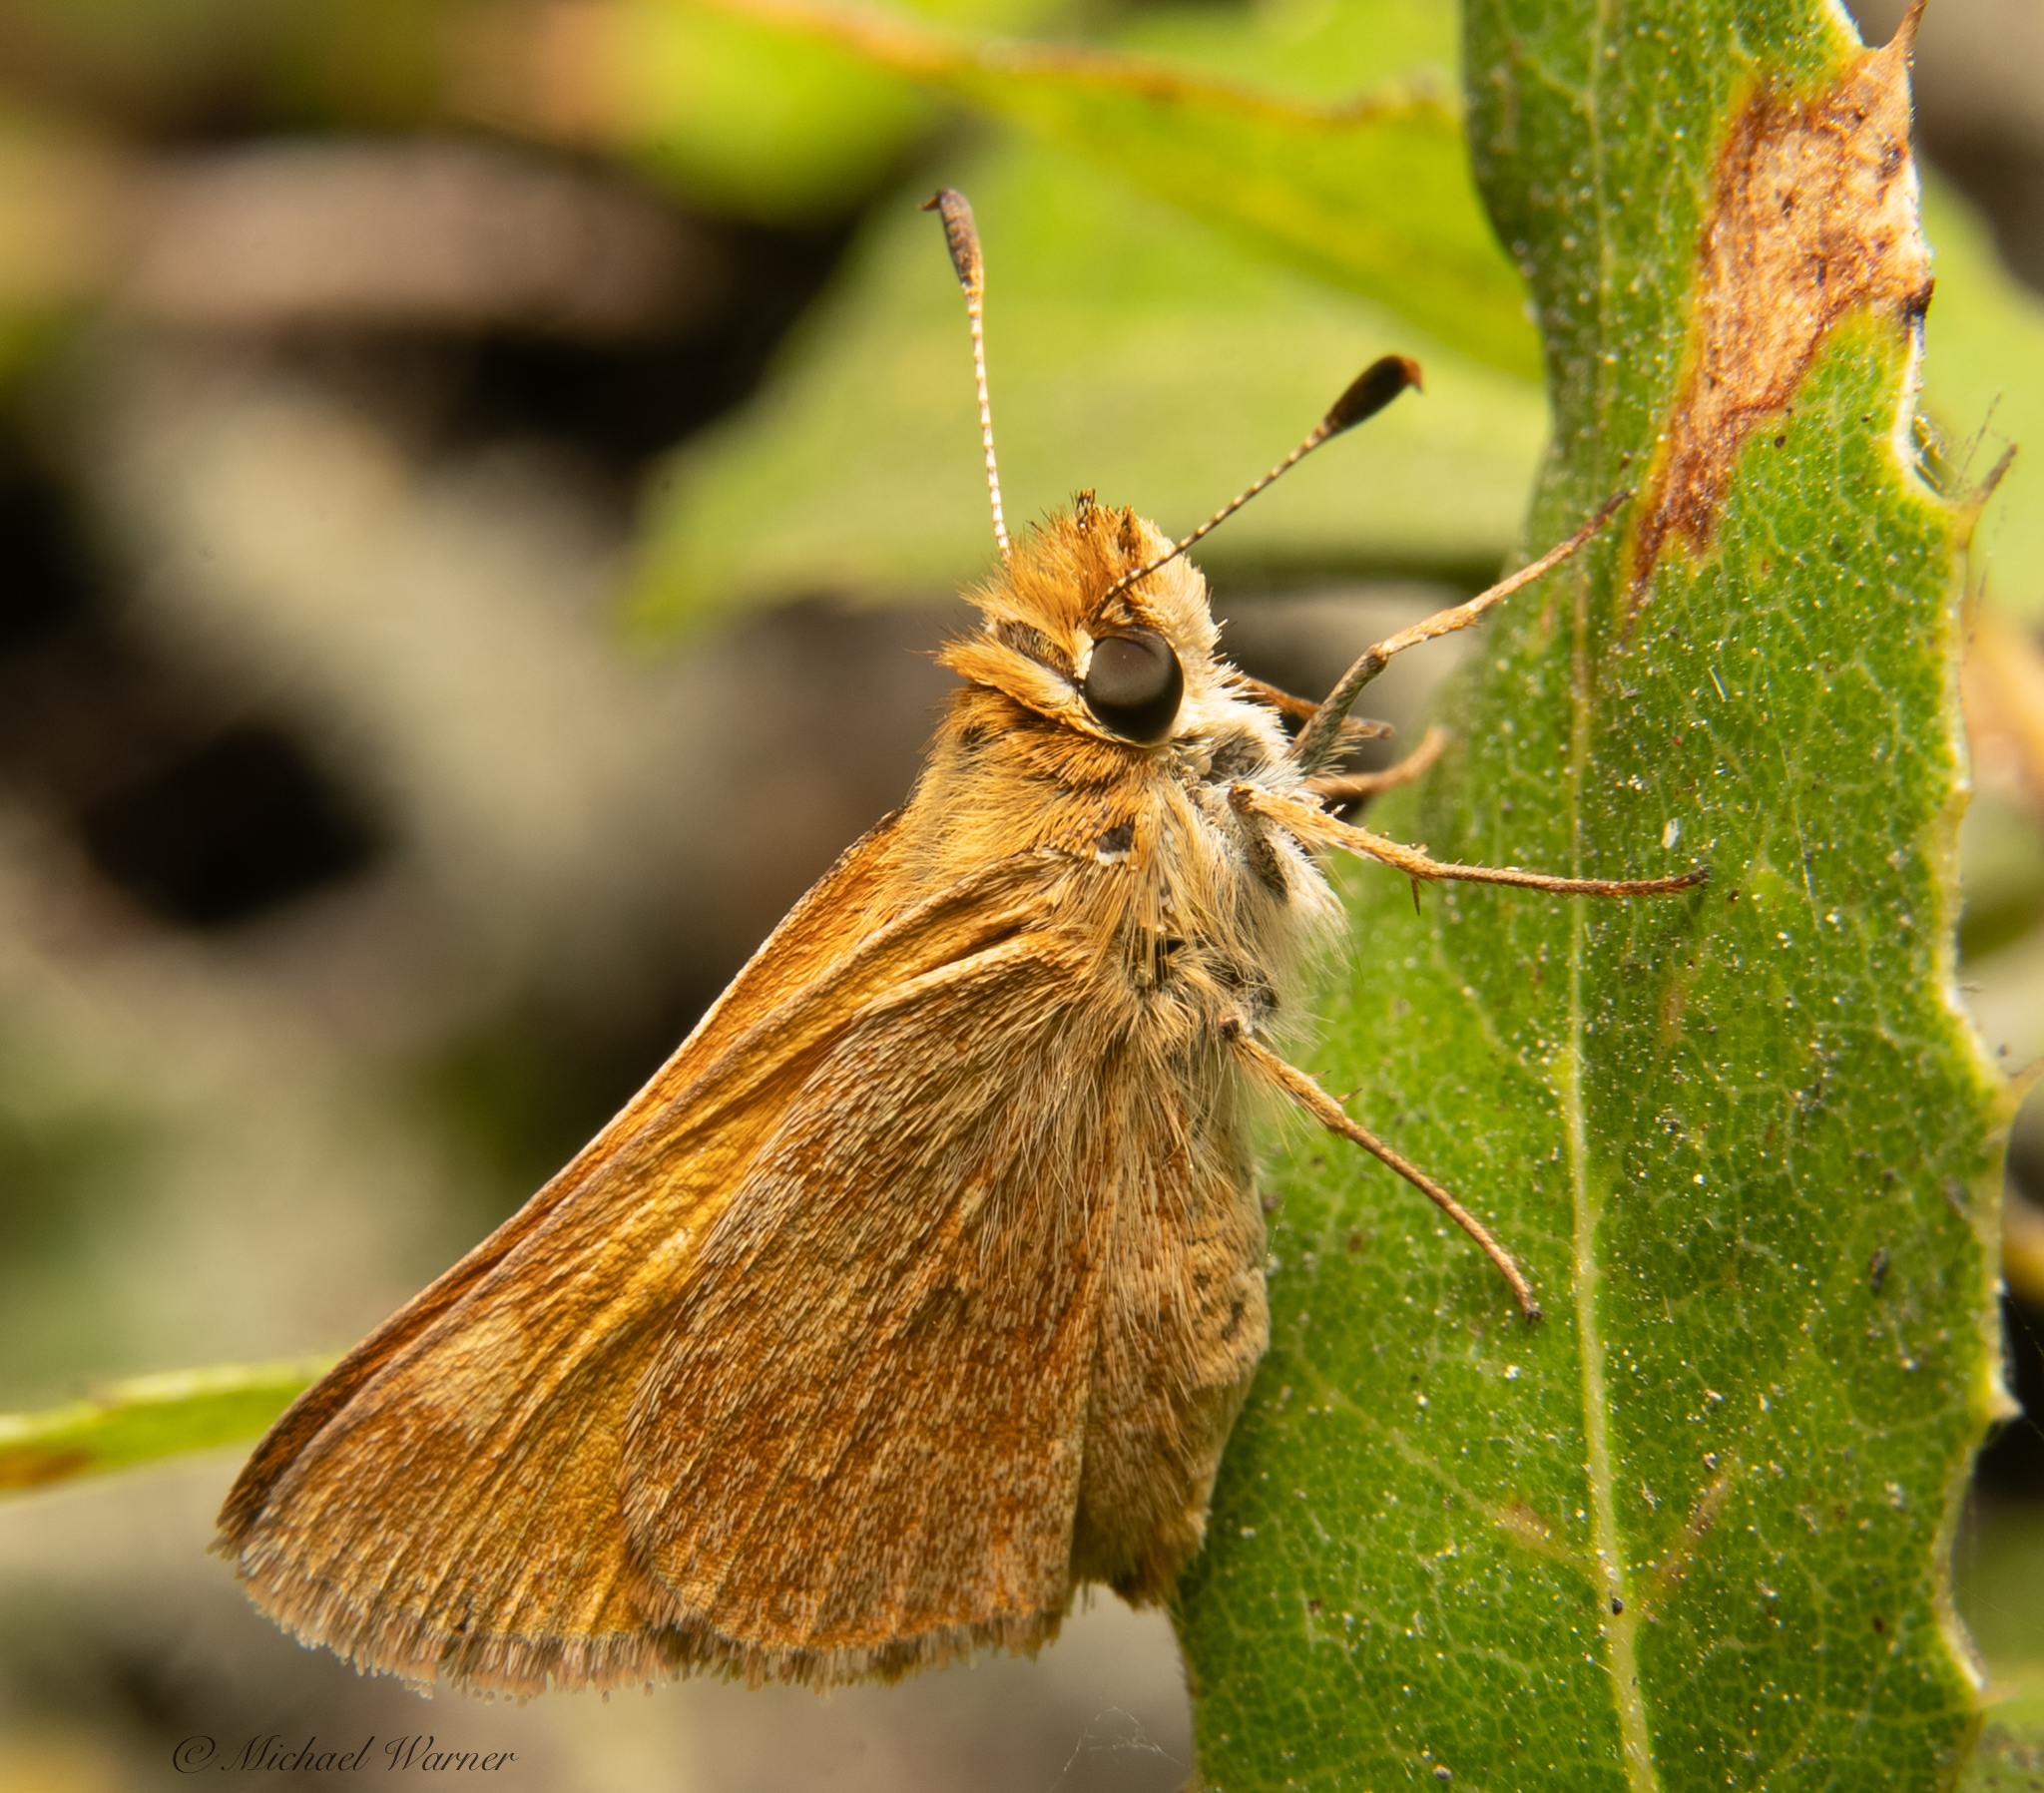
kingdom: Animalia
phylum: Arthropoda
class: Insecta
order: Lepidoptera
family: Hesperiidae
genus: Ochlodes
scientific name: Ochlodes sylvanoides
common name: Woodland skipper
